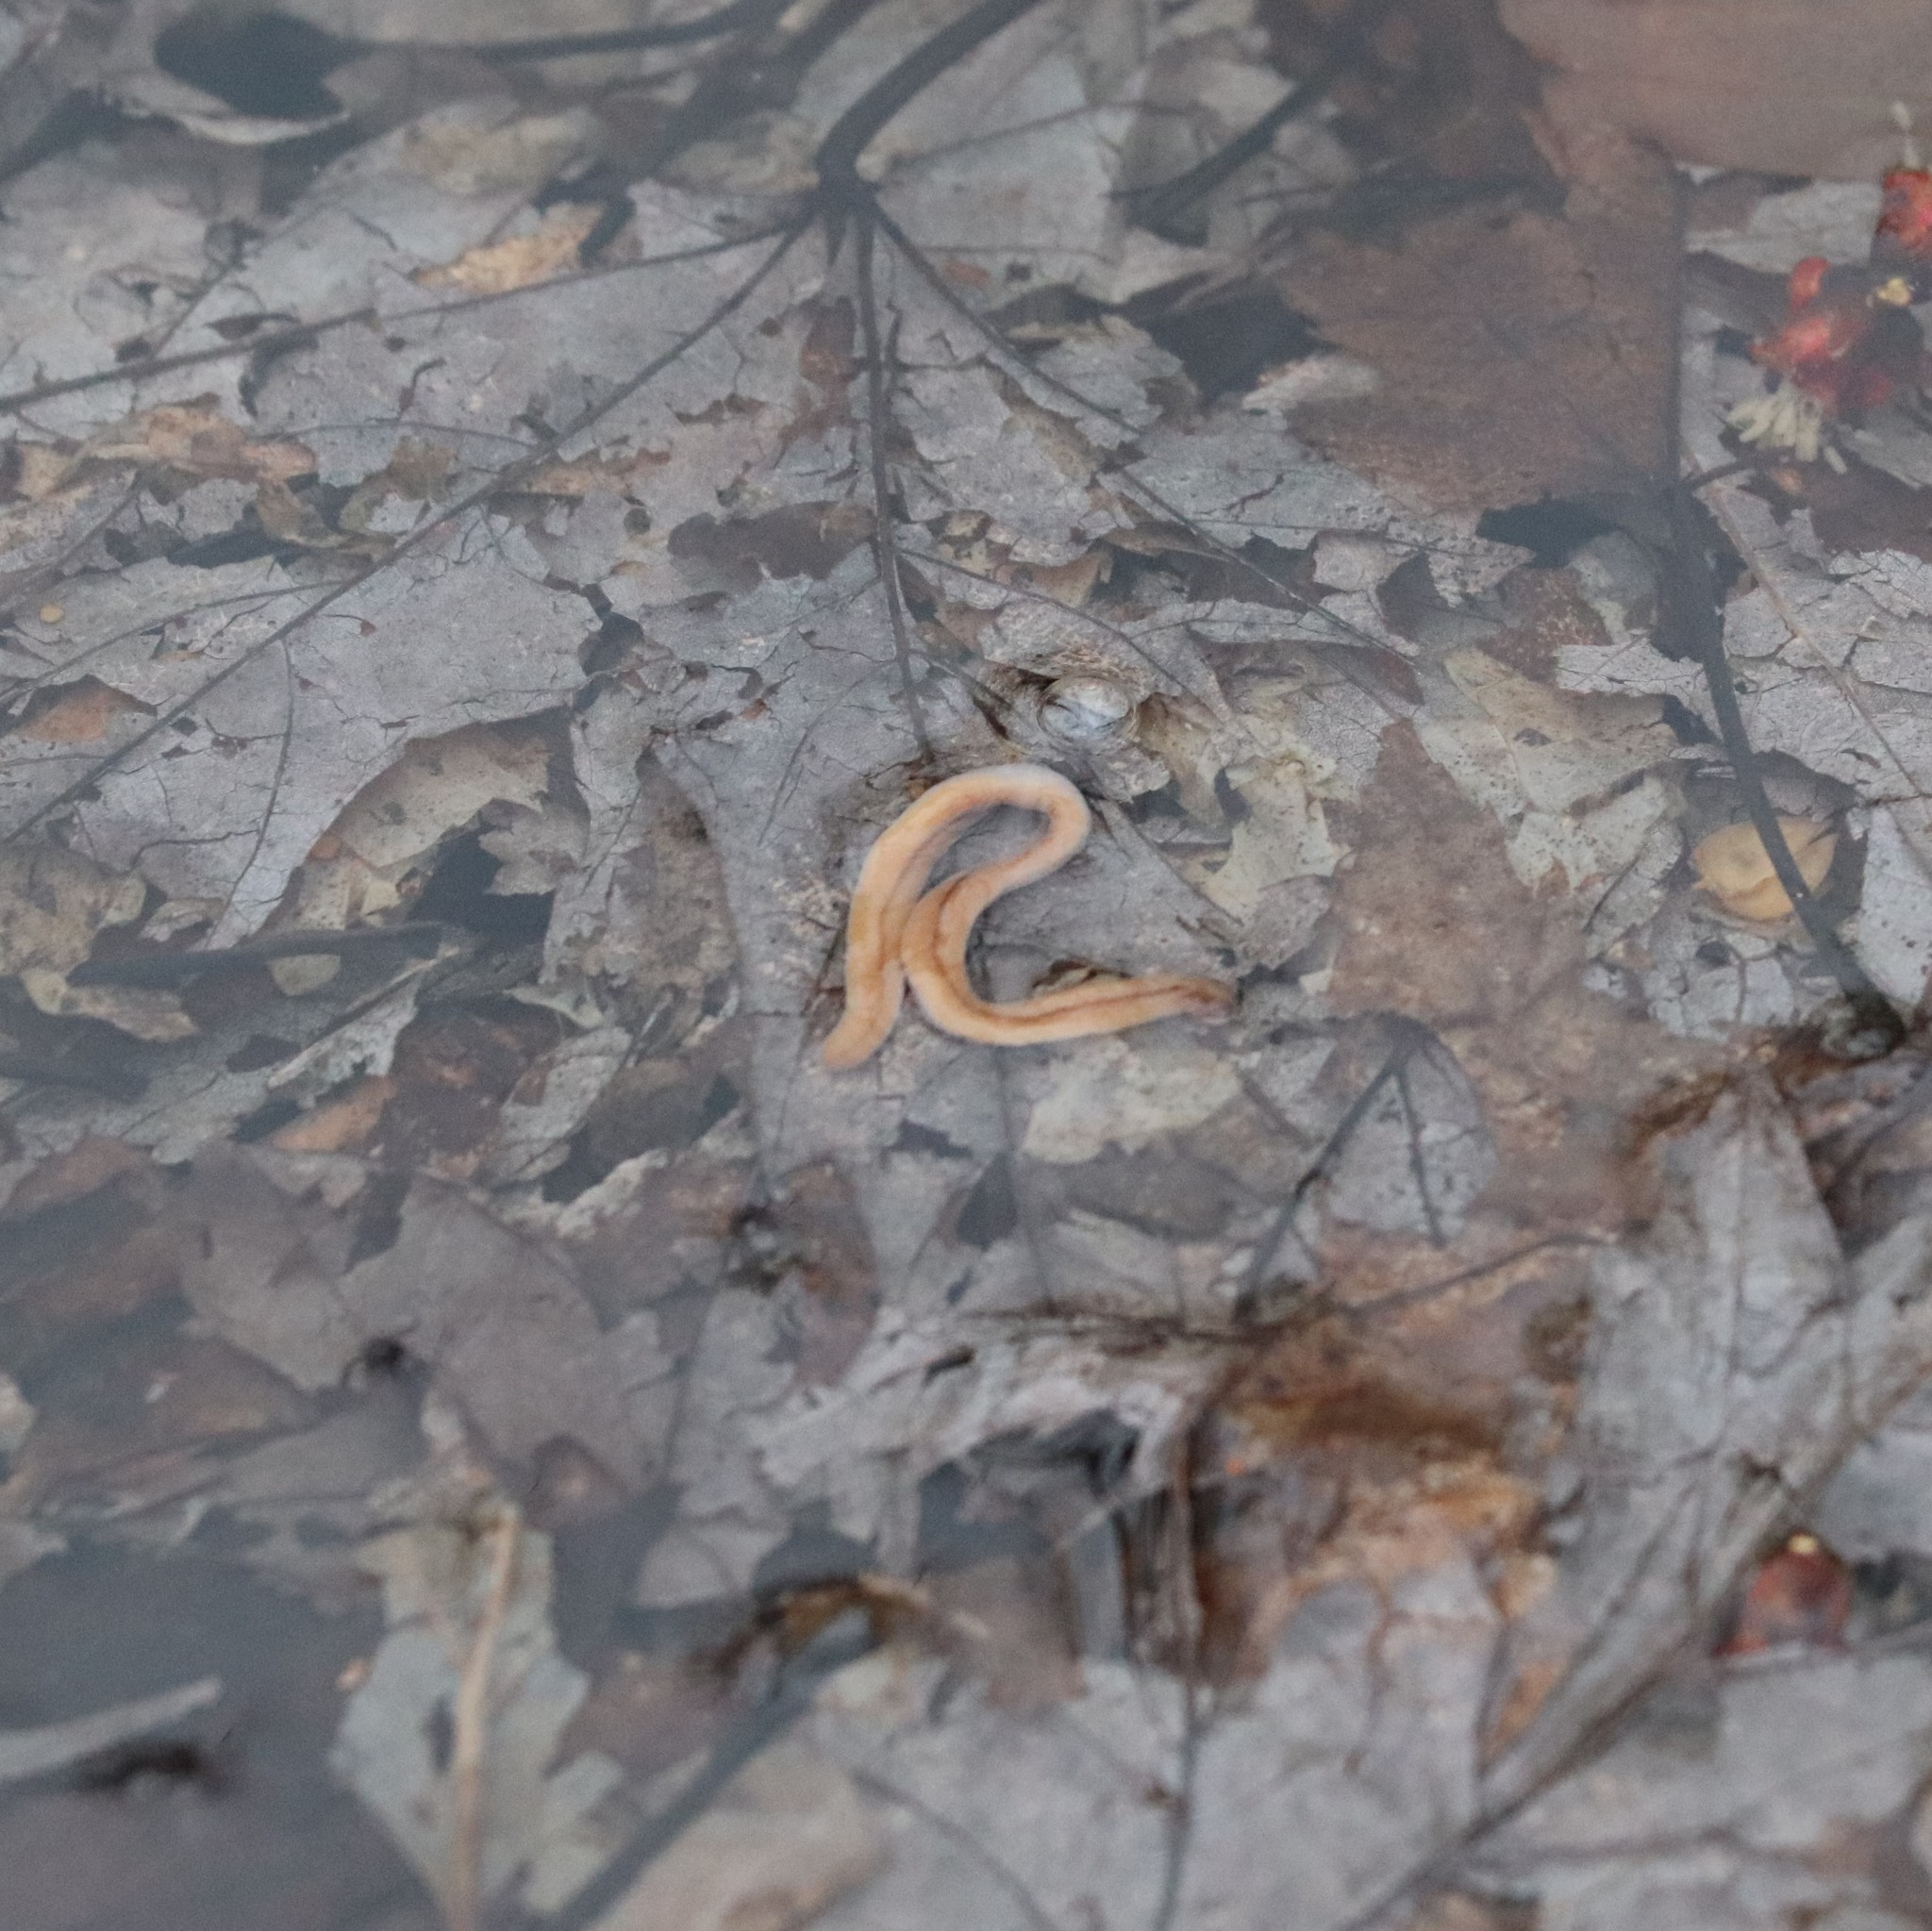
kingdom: Animalia
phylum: Platyhelminthes
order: Tricladida
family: Geoplanidae
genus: Bipalium
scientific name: Bipalium adventitium
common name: Land planarian
